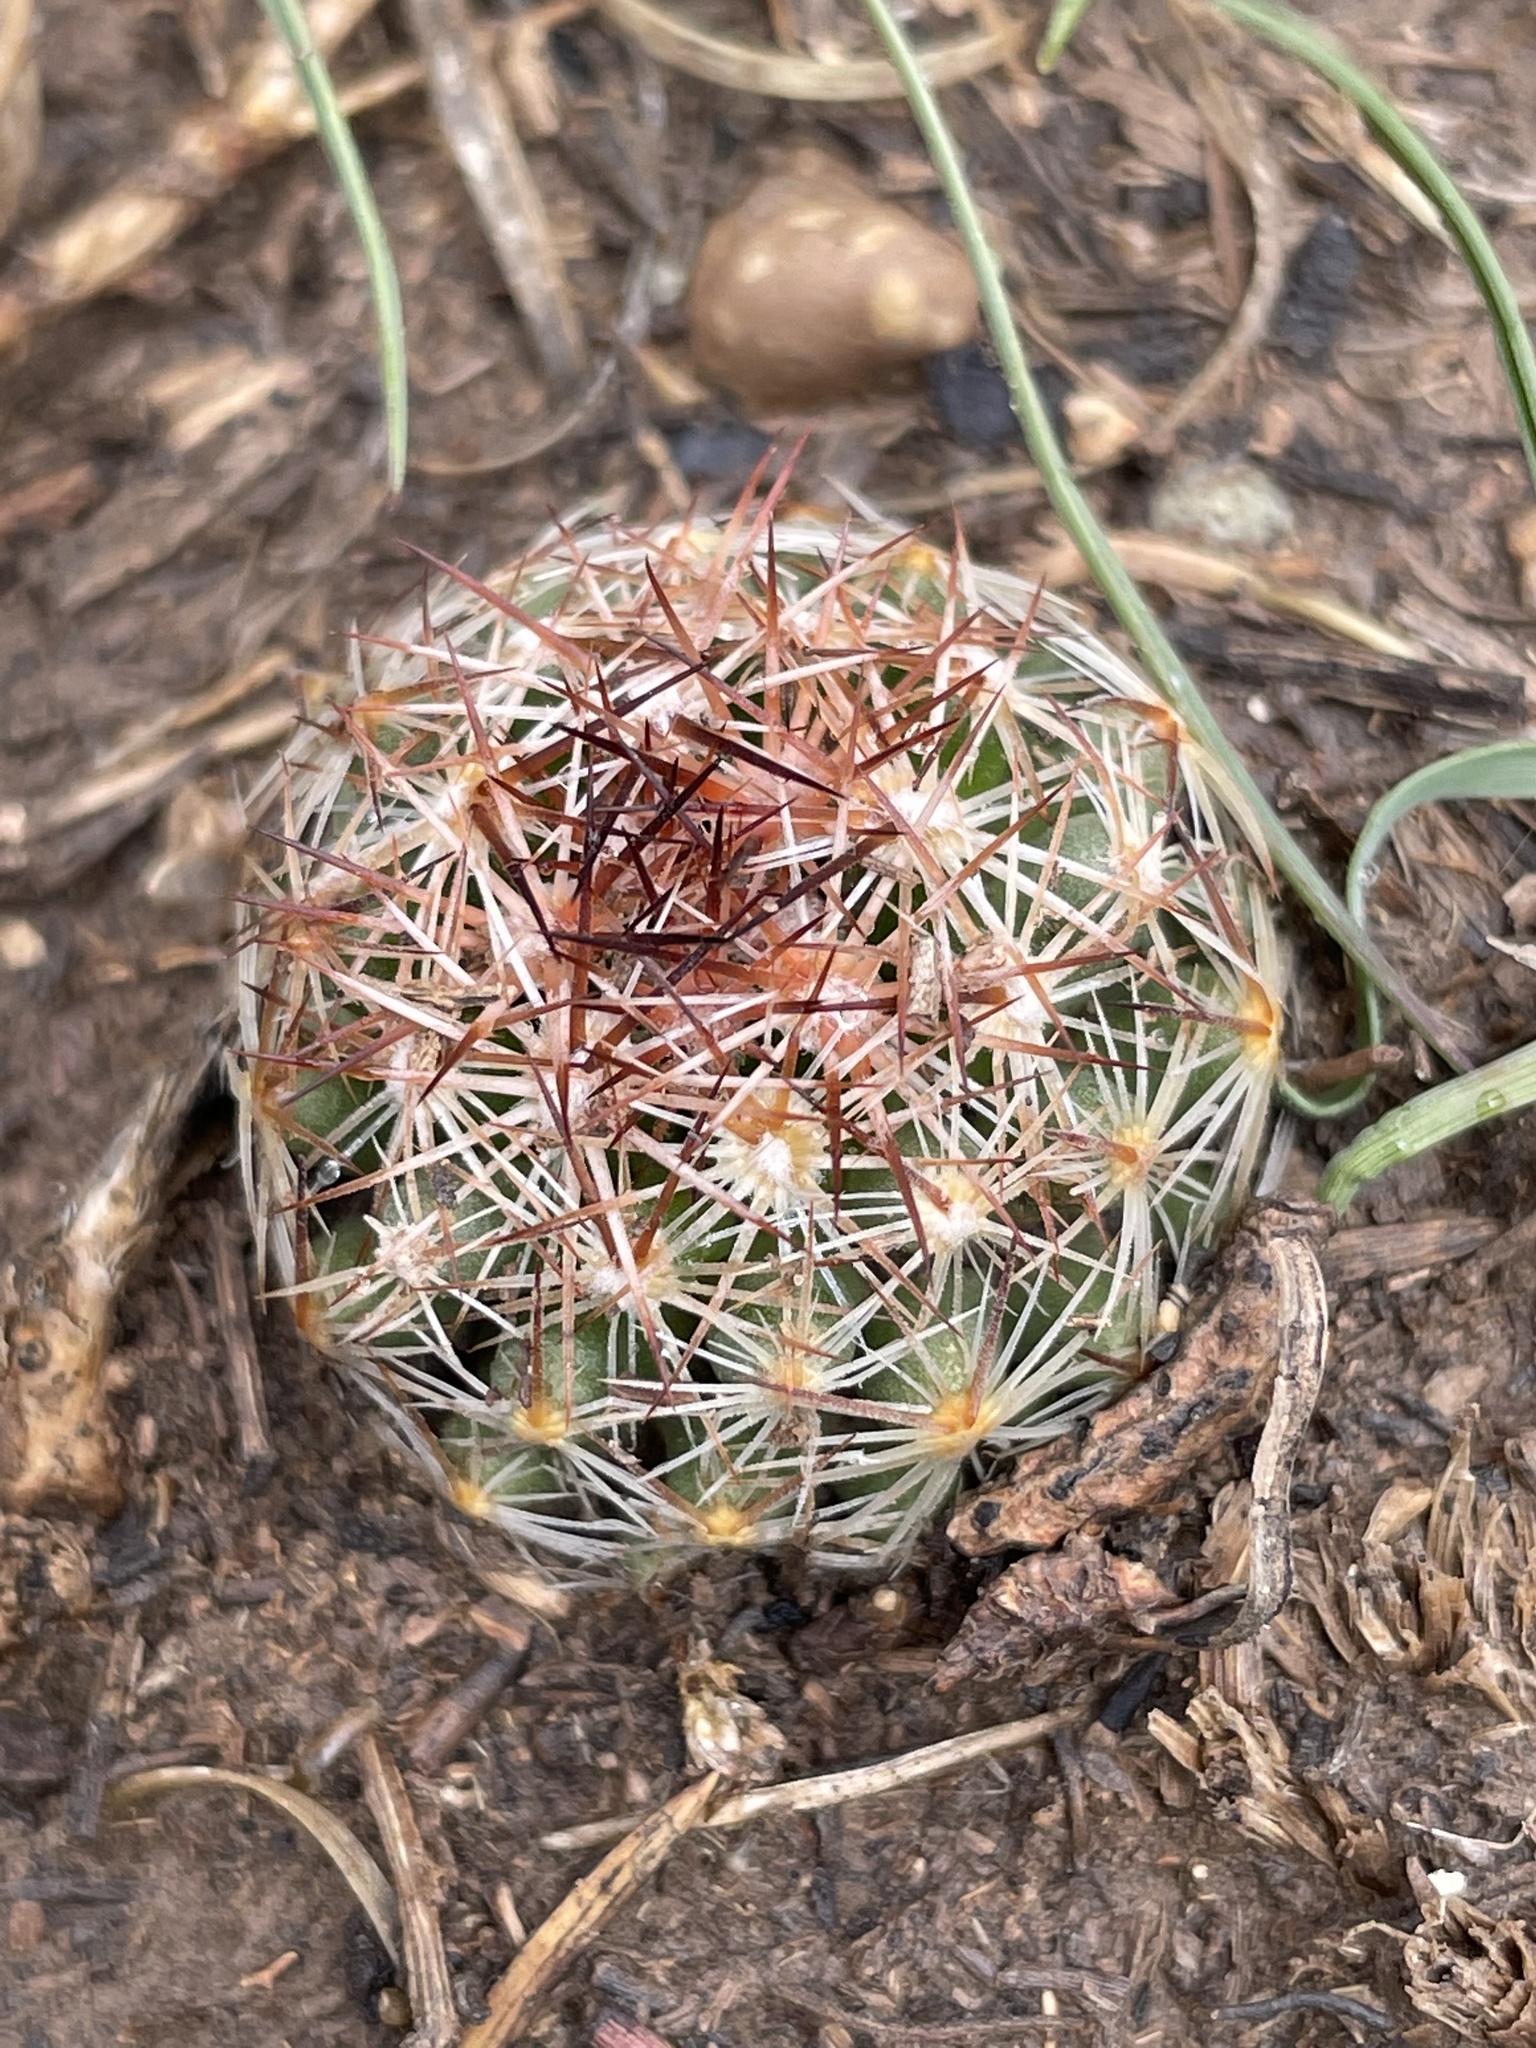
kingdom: Plantae
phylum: Tracheophyta
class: Magnoliopsida
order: Caryophyllales
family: Cactaceae
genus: Pelecyphora
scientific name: Pelecyphora vivipara
